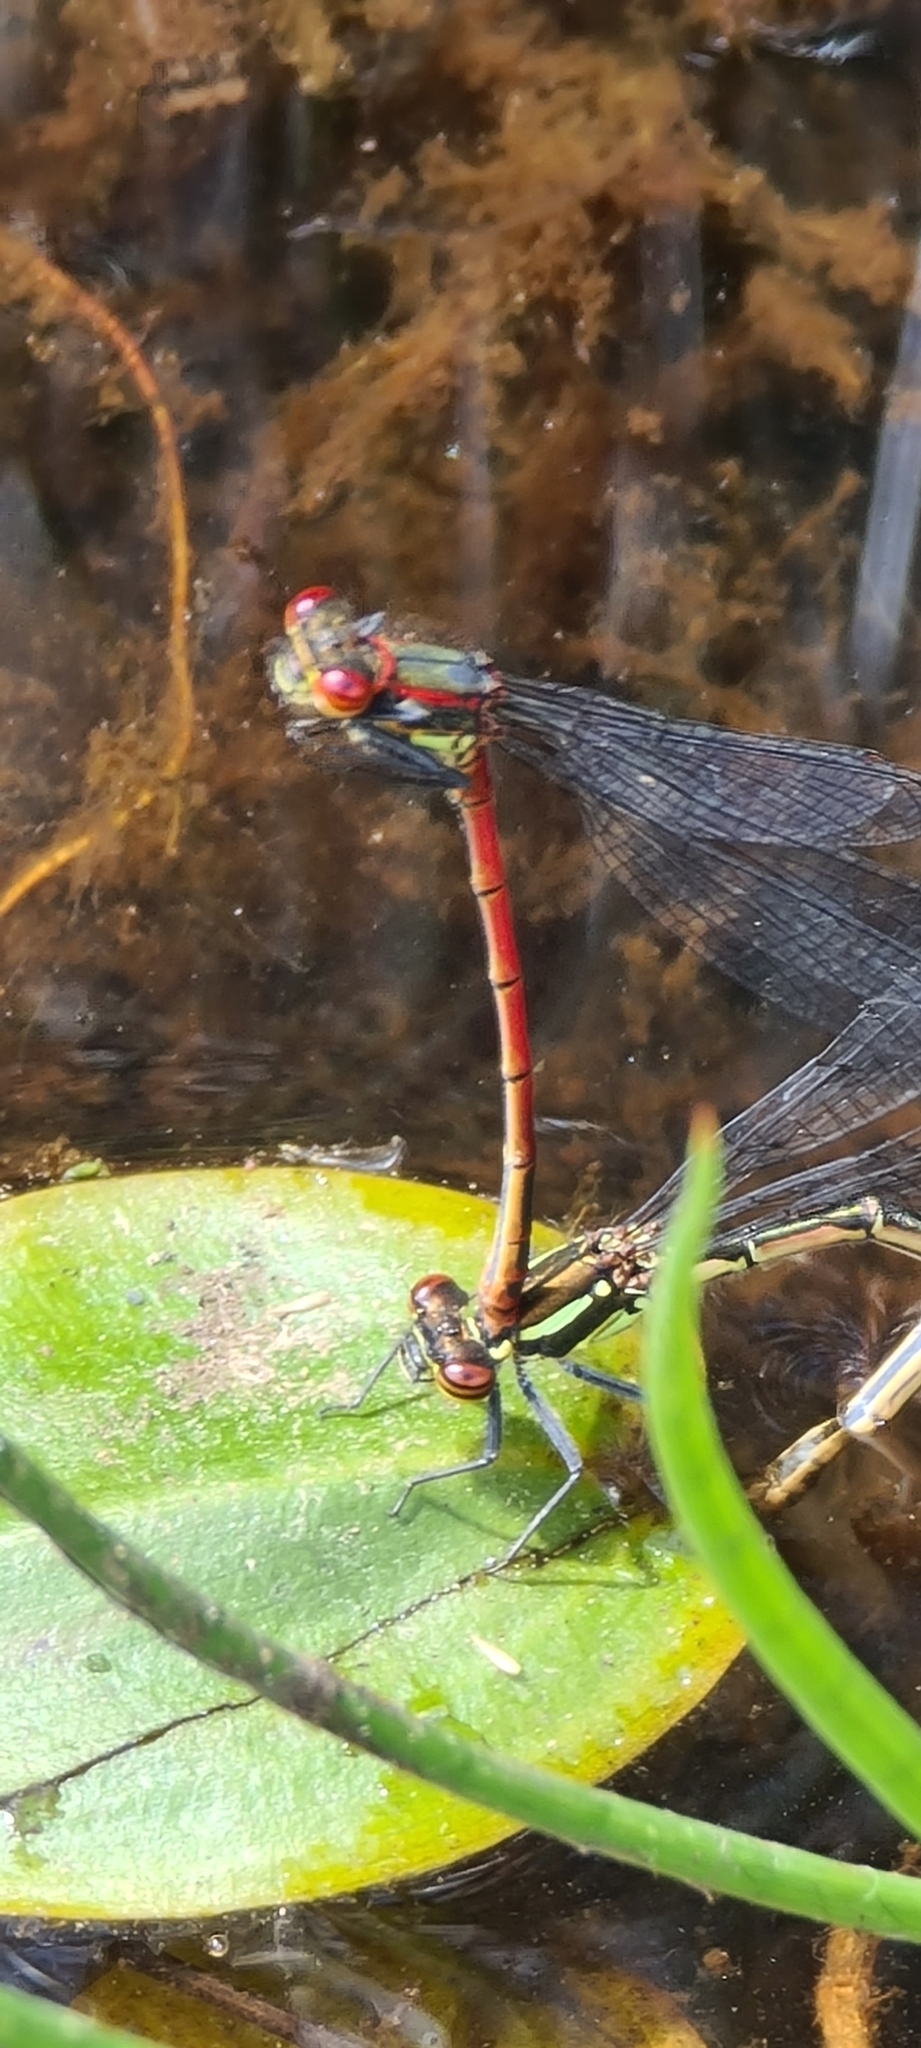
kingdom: Animalia
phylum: Arthropoda
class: Insecta
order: Odonata
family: Coenagrionidae
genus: Pyrrhosoma
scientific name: Pyrrhosoma nymphula
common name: Large red damsel
